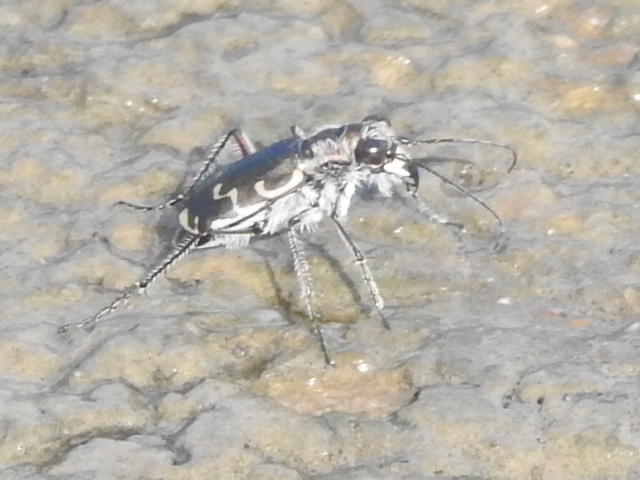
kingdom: Animalia
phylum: Arthropoda
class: Insecta
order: Coleoptera
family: Carabidae
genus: Cicindela
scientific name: Cicindela repanda
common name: Bronzed tiger beetle
